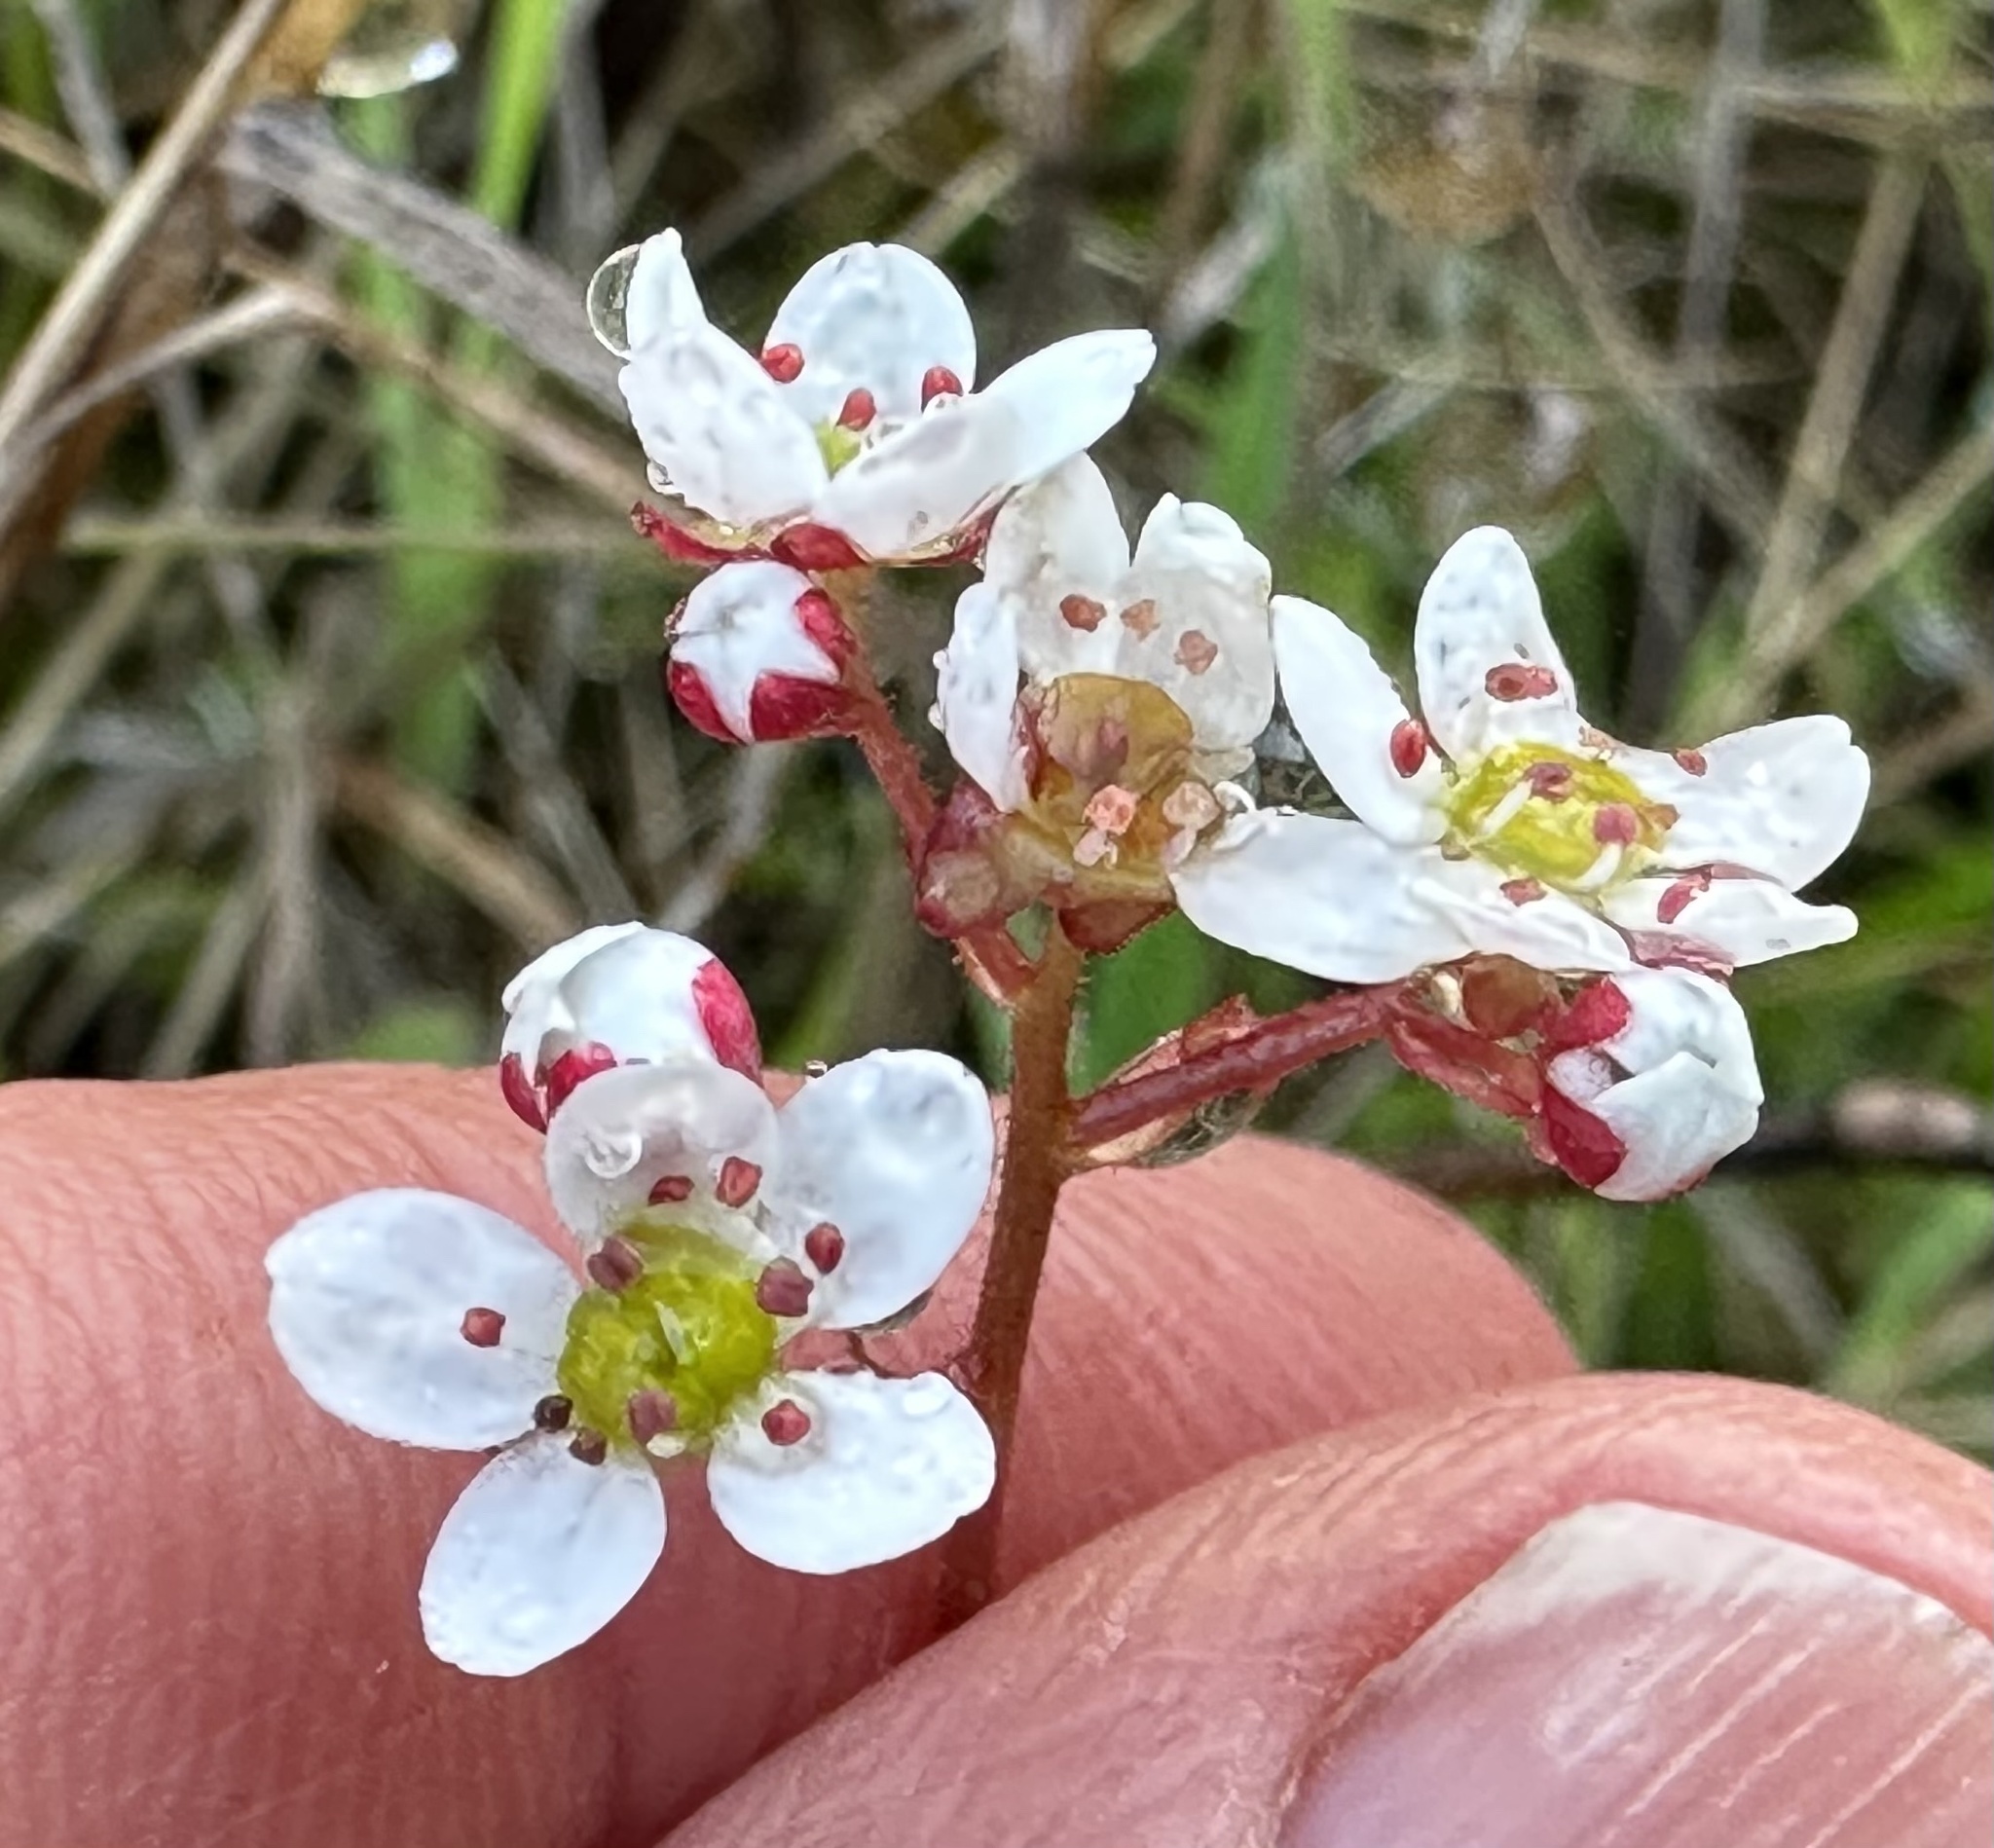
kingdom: Plantae
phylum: Tracheophyta
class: Magnoliopsida
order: Saxifragales
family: Saxifragaceae
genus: Micranthes
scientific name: Micranthes californica
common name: California saxifrage
